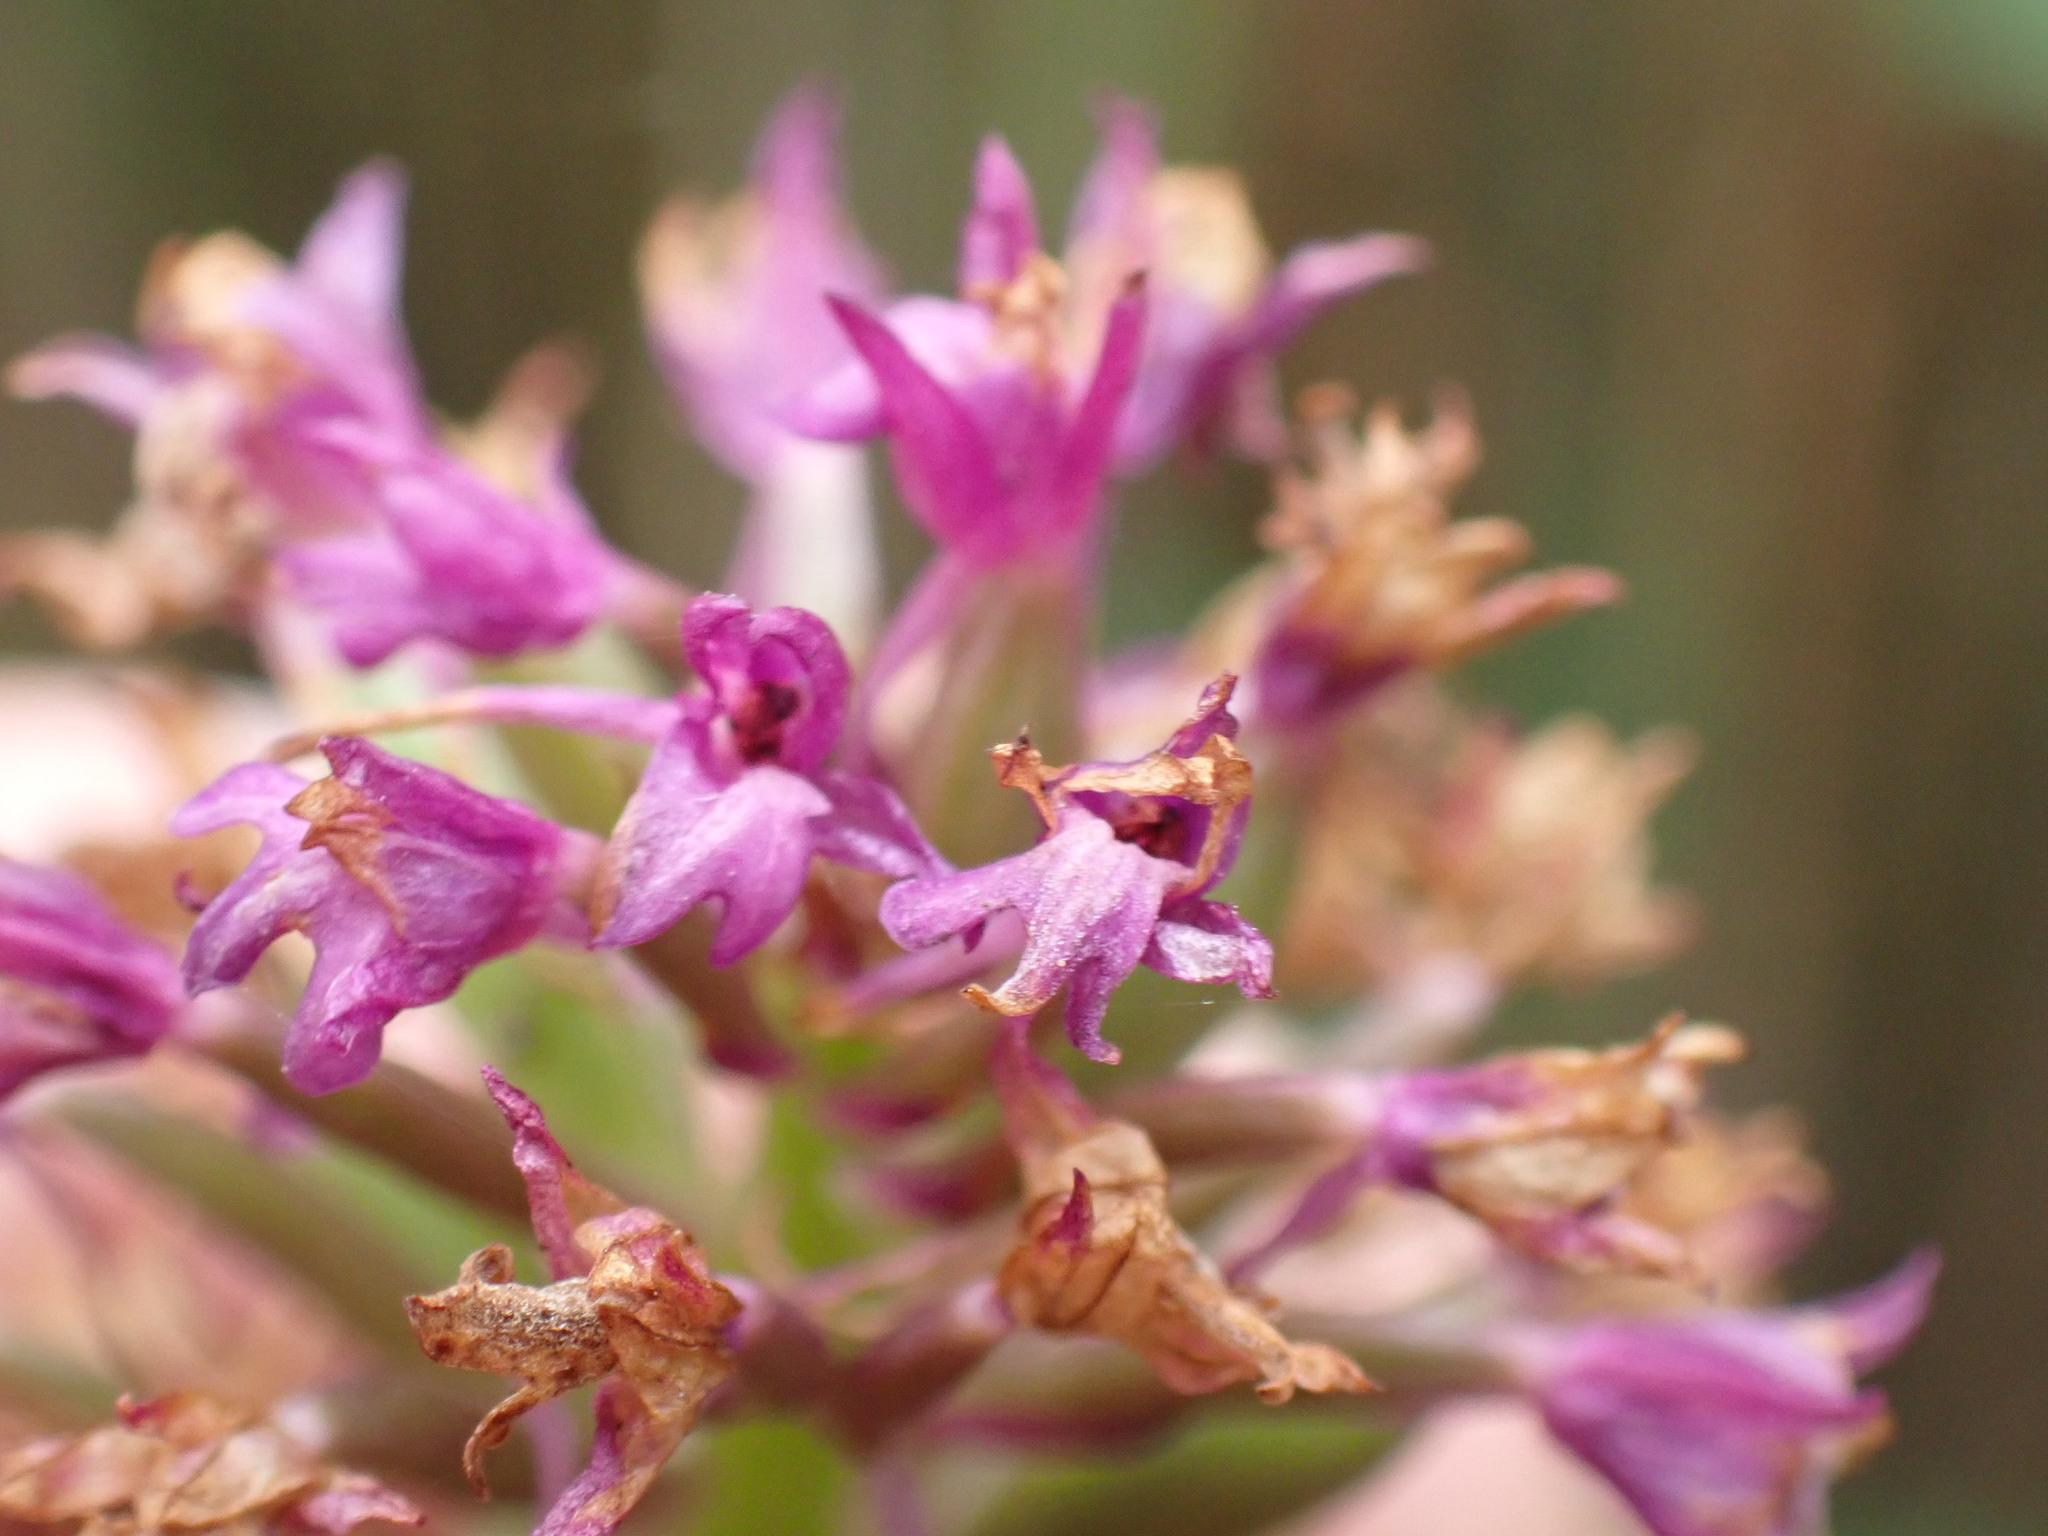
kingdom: Plantae
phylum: Tracheophyta
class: Liliopsida
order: Asparagales
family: Orchidaceae
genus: Anacamptis
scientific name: Anacamptis pyramidalis
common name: Pyramidal orchid
